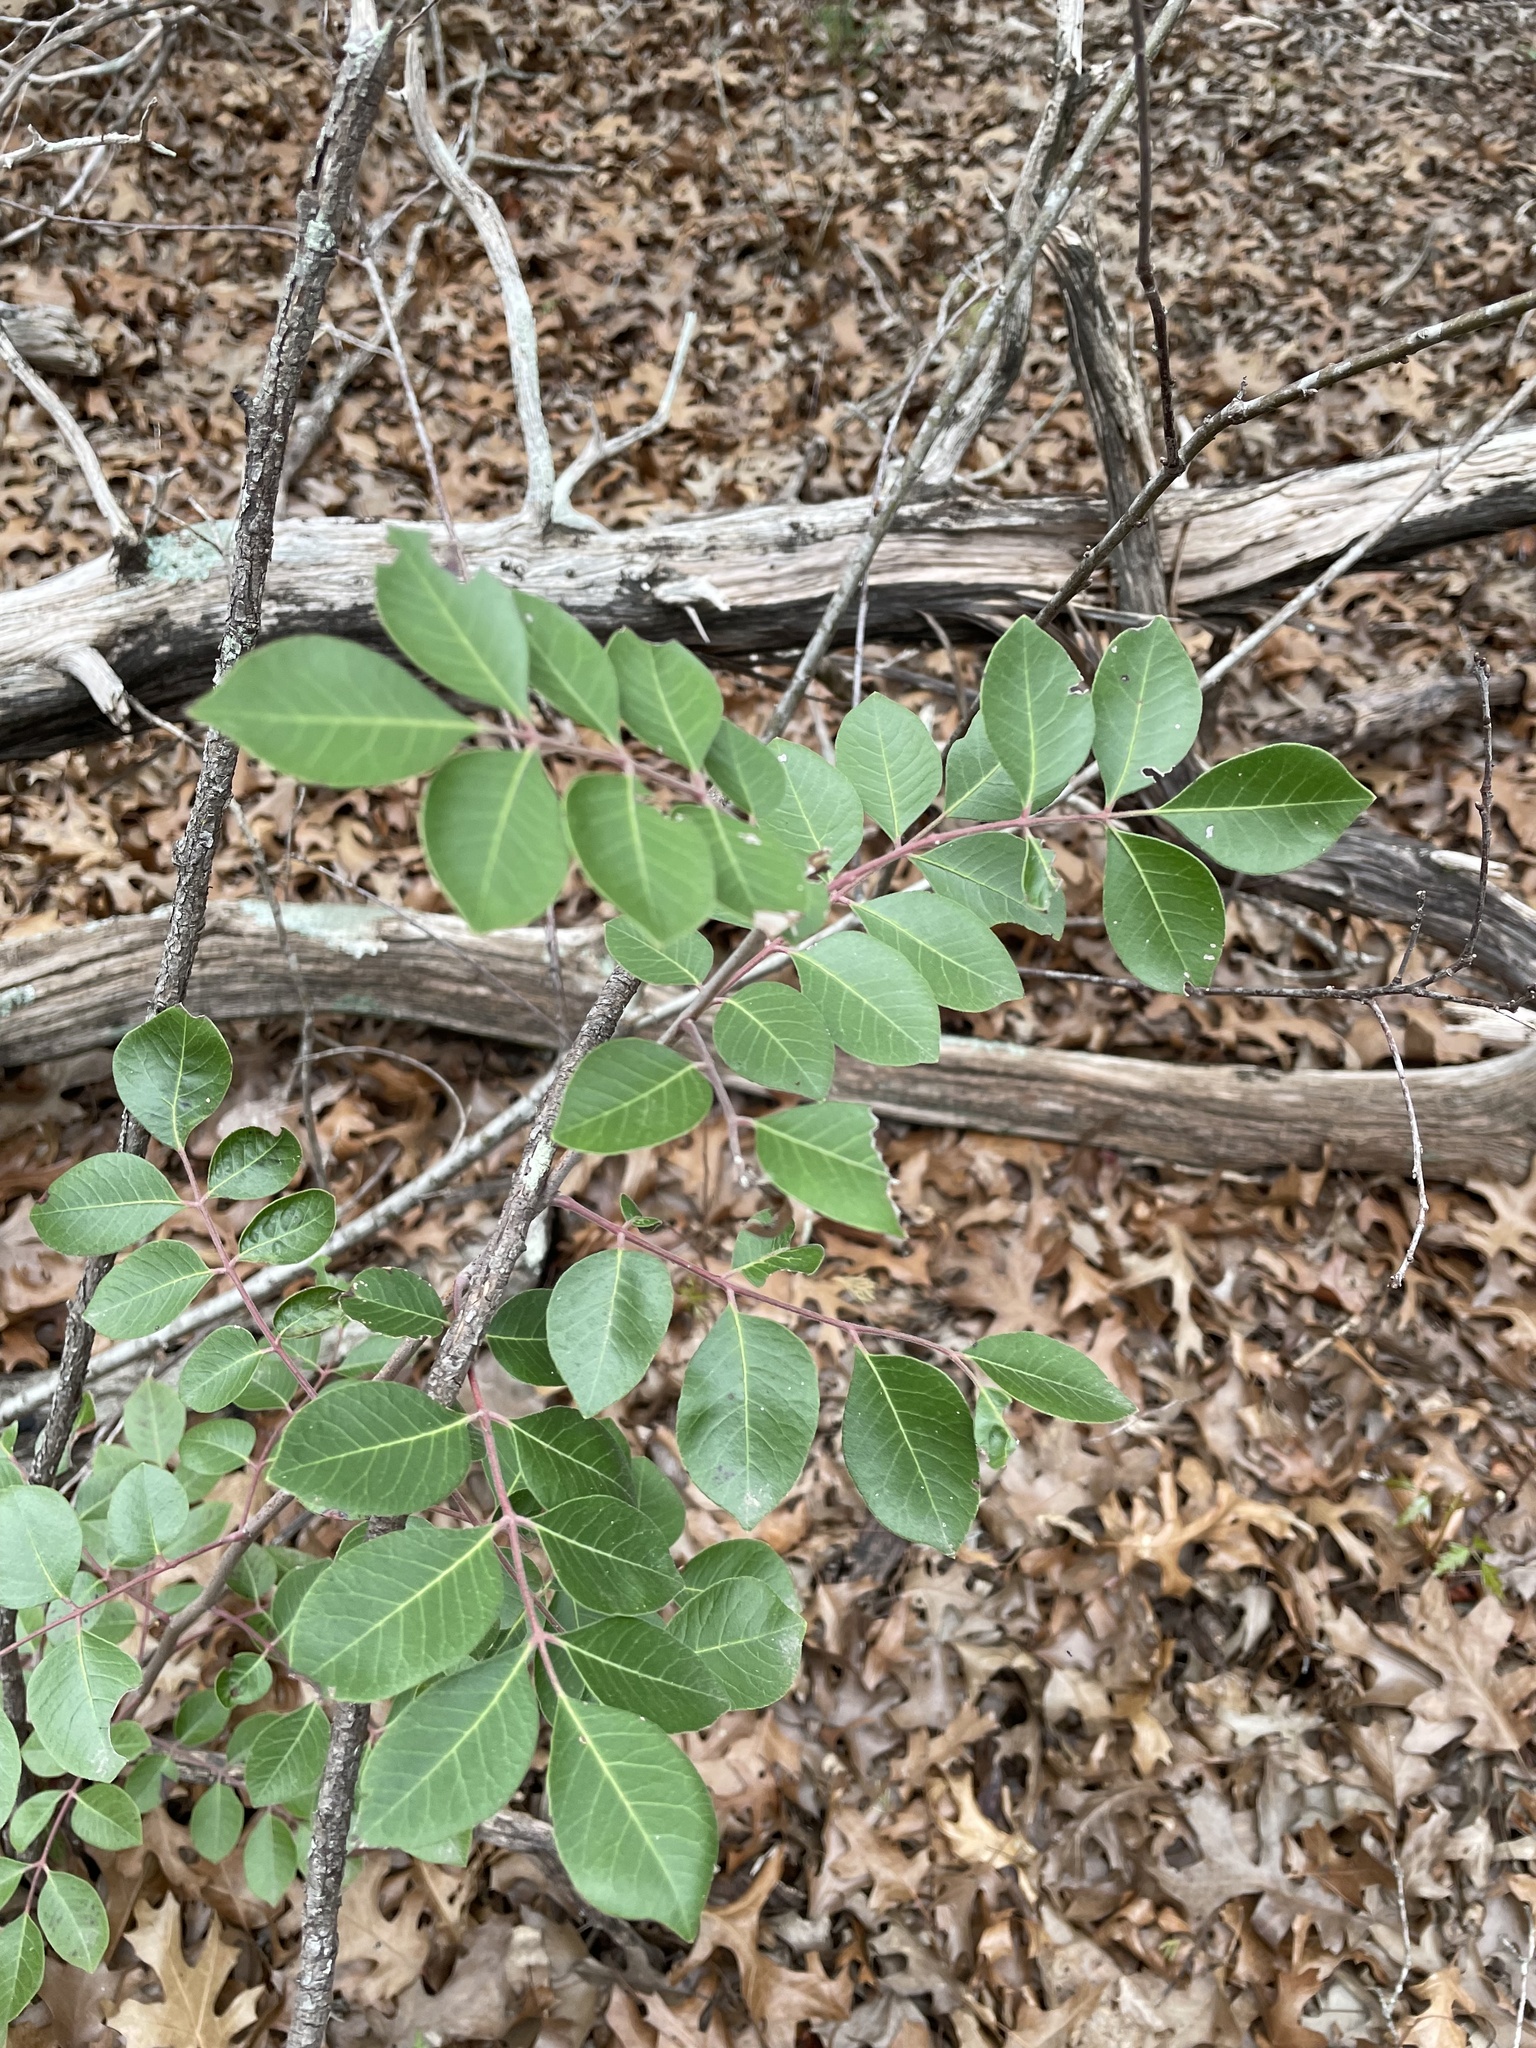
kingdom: Plantae
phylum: Tracheophyta
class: Magnoliopsida
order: Sapindales
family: Anacardiaceae
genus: Rhus
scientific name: Rhus virens
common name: Evergreen sumac
